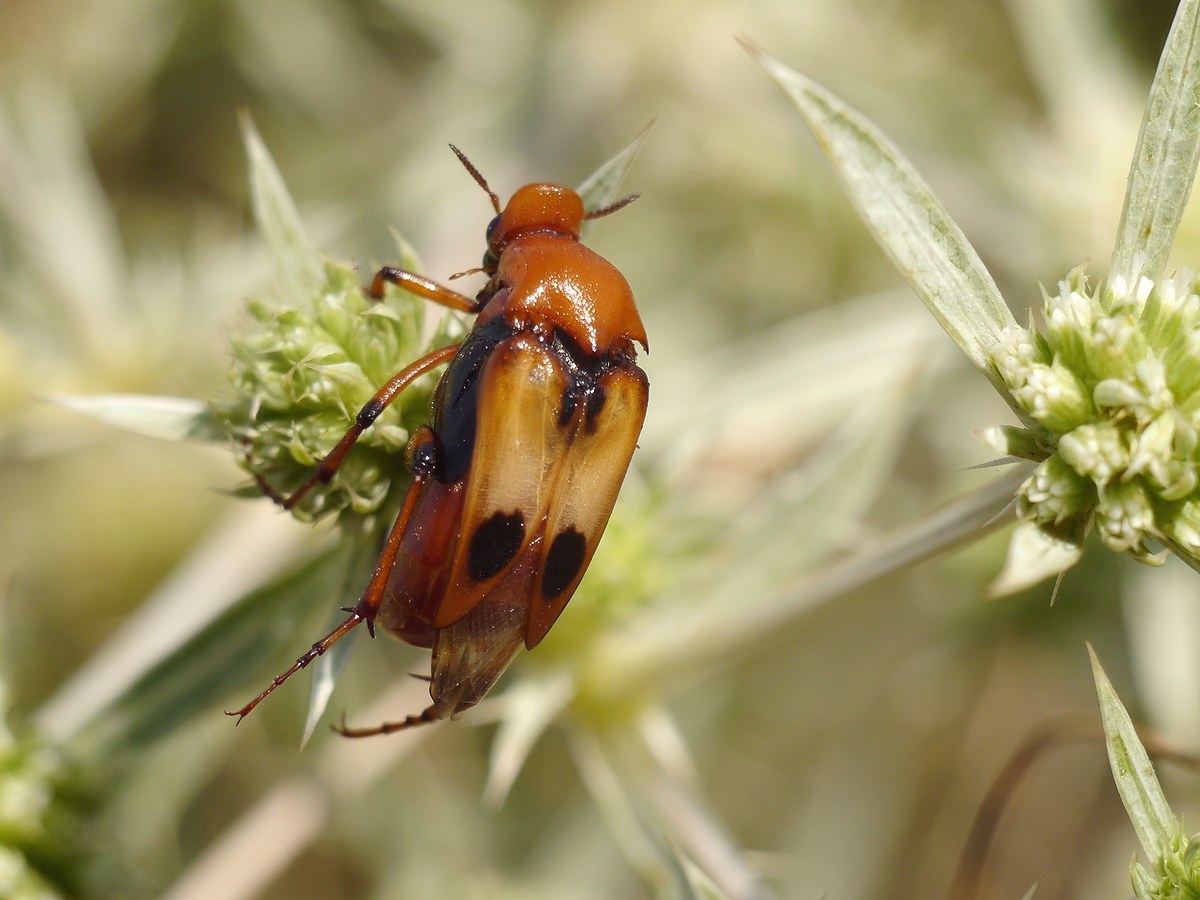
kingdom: Animalia
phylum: Arthropoda
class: Insecta
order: Coleoptera
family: Ripiphoridae
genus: Macrosiagon
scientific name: Macrosiagon bimaculata
